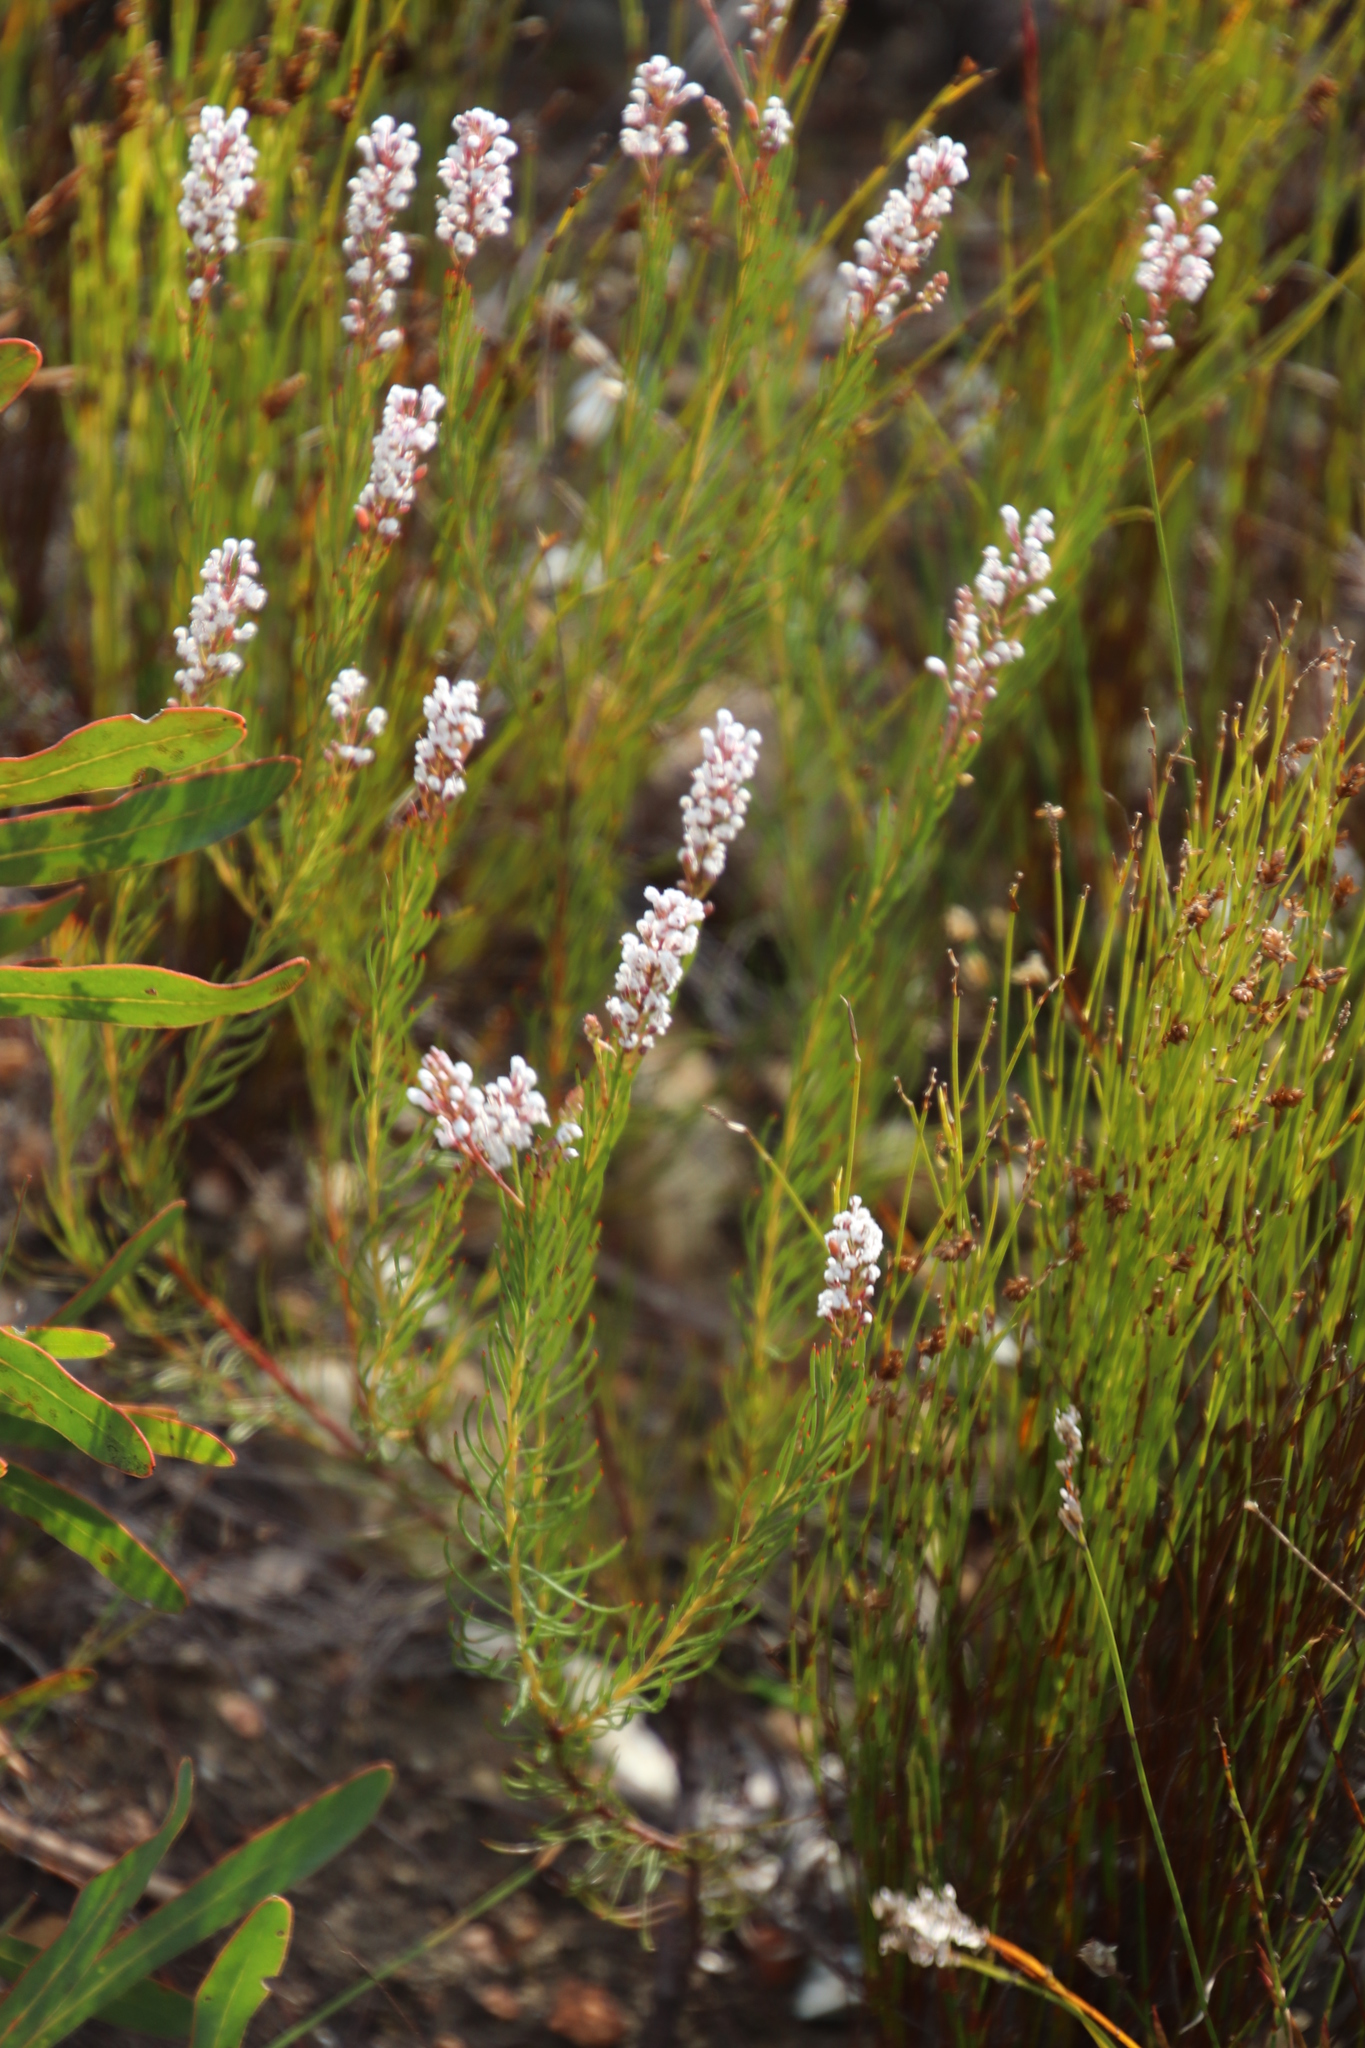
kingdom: Plantae
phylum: Tracheophyta
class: Magnoliopsida
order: Proteales
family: Proteaceae
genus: Spatalla
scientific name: Spatalla racemosa
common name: Lax-stalked spoon
